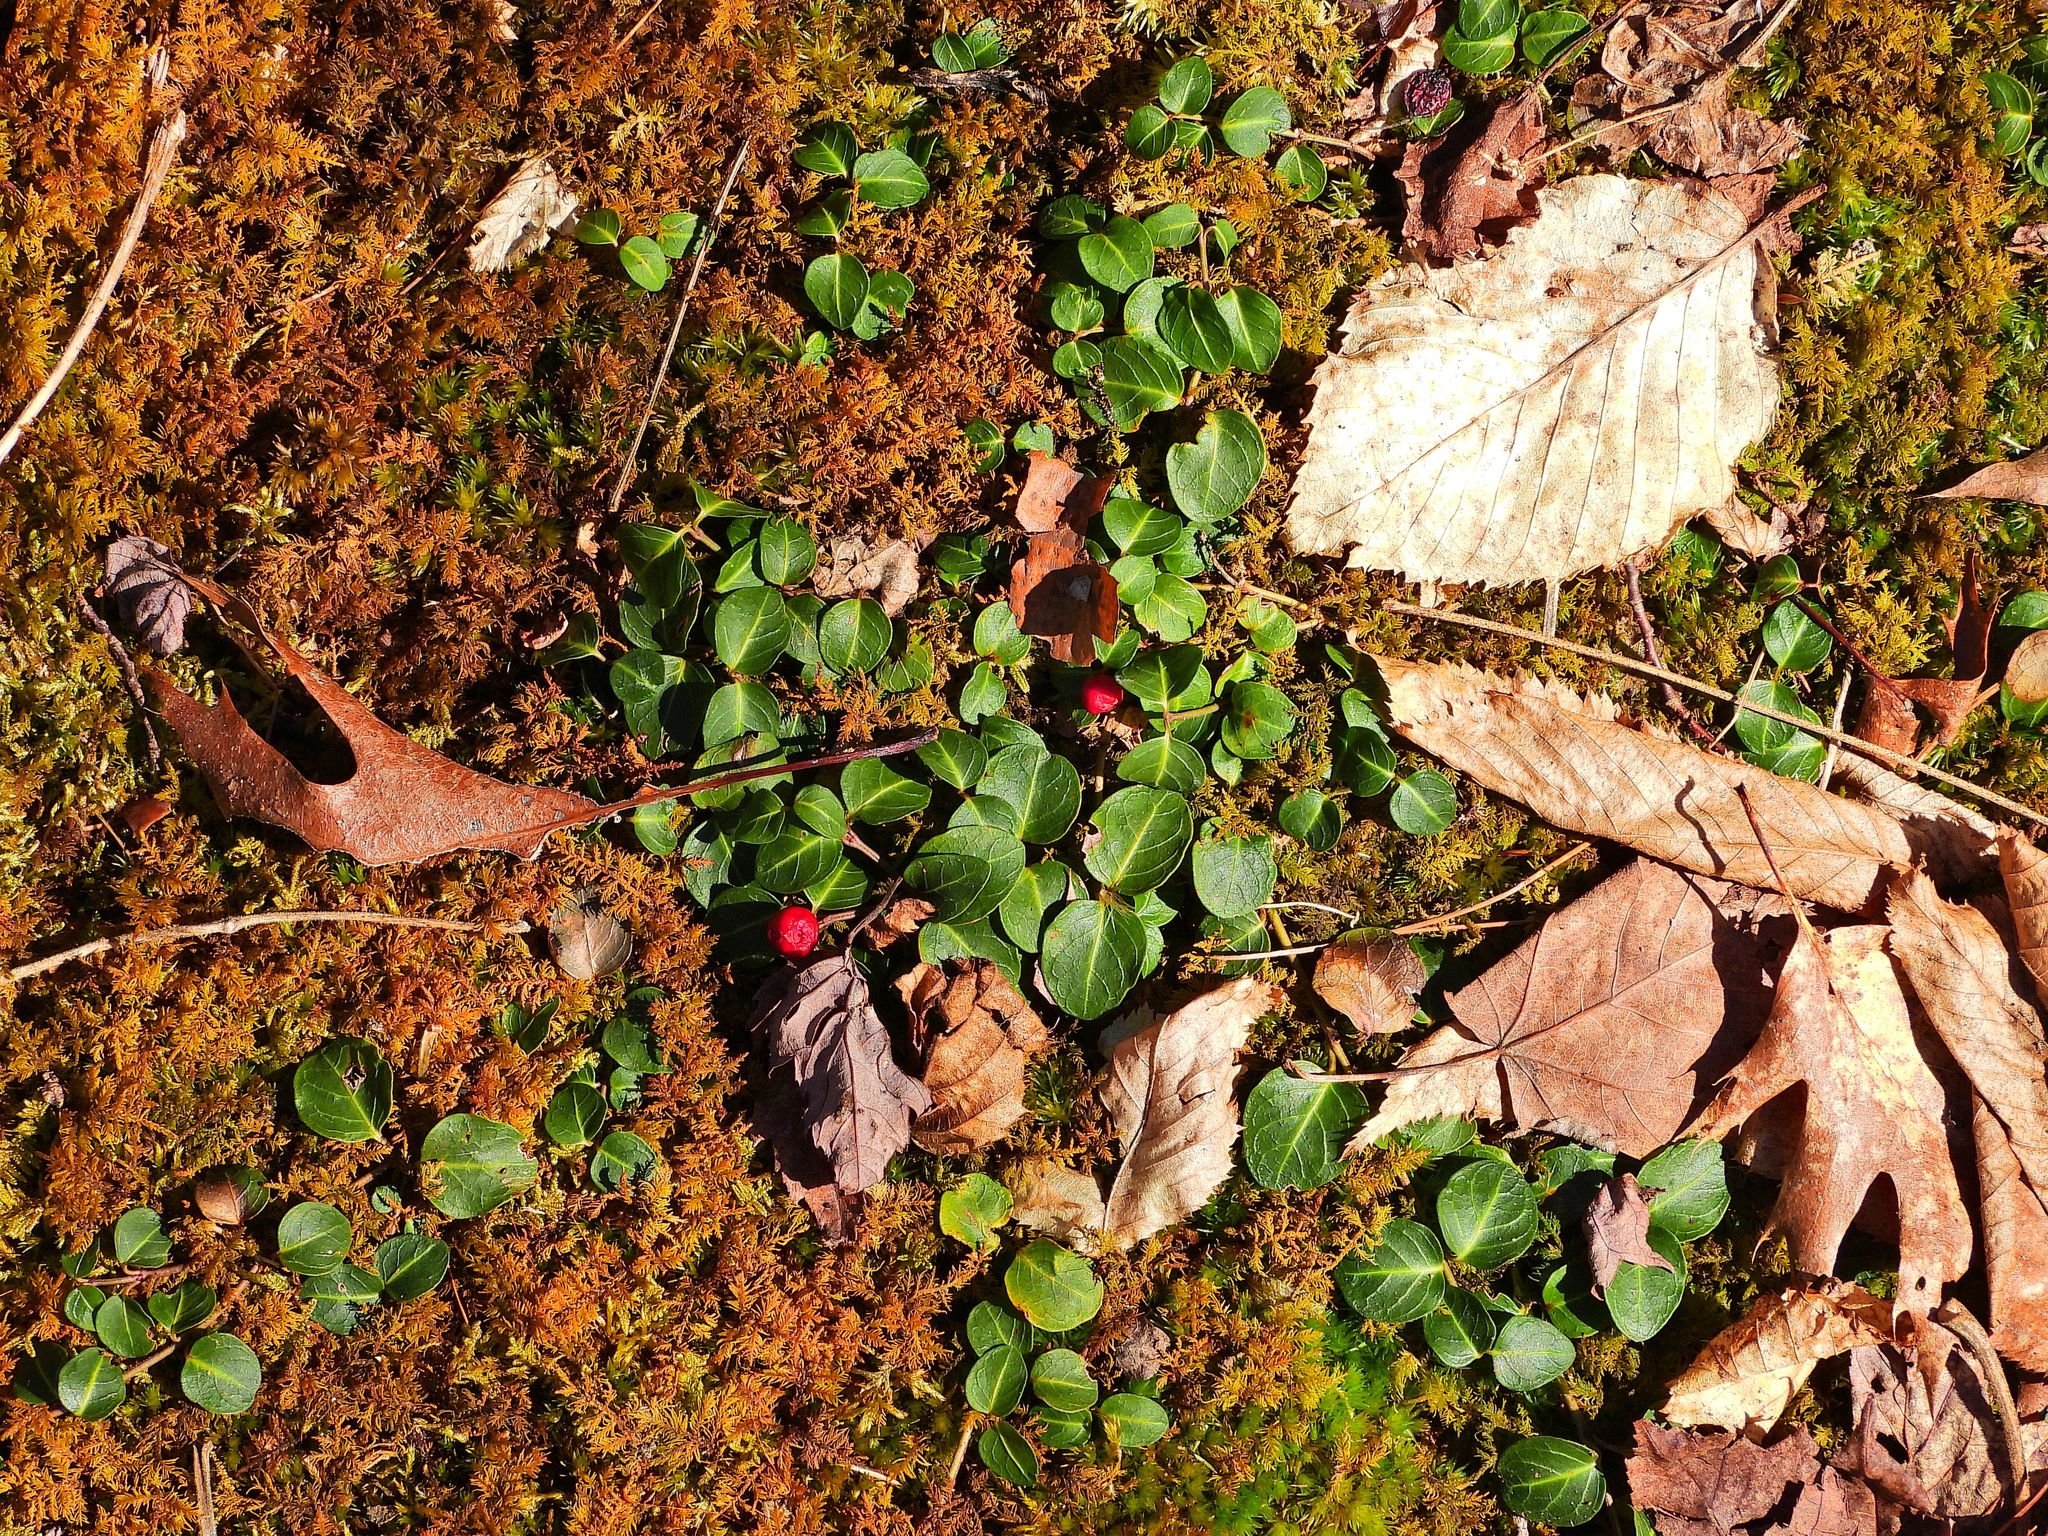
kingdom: Plantae
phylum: Tracheophyta
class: Magnoliopsida
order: Gentianales
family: Rubiaceae
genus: Mitchella
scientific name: Mitchella repens
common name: Partridge-berry
